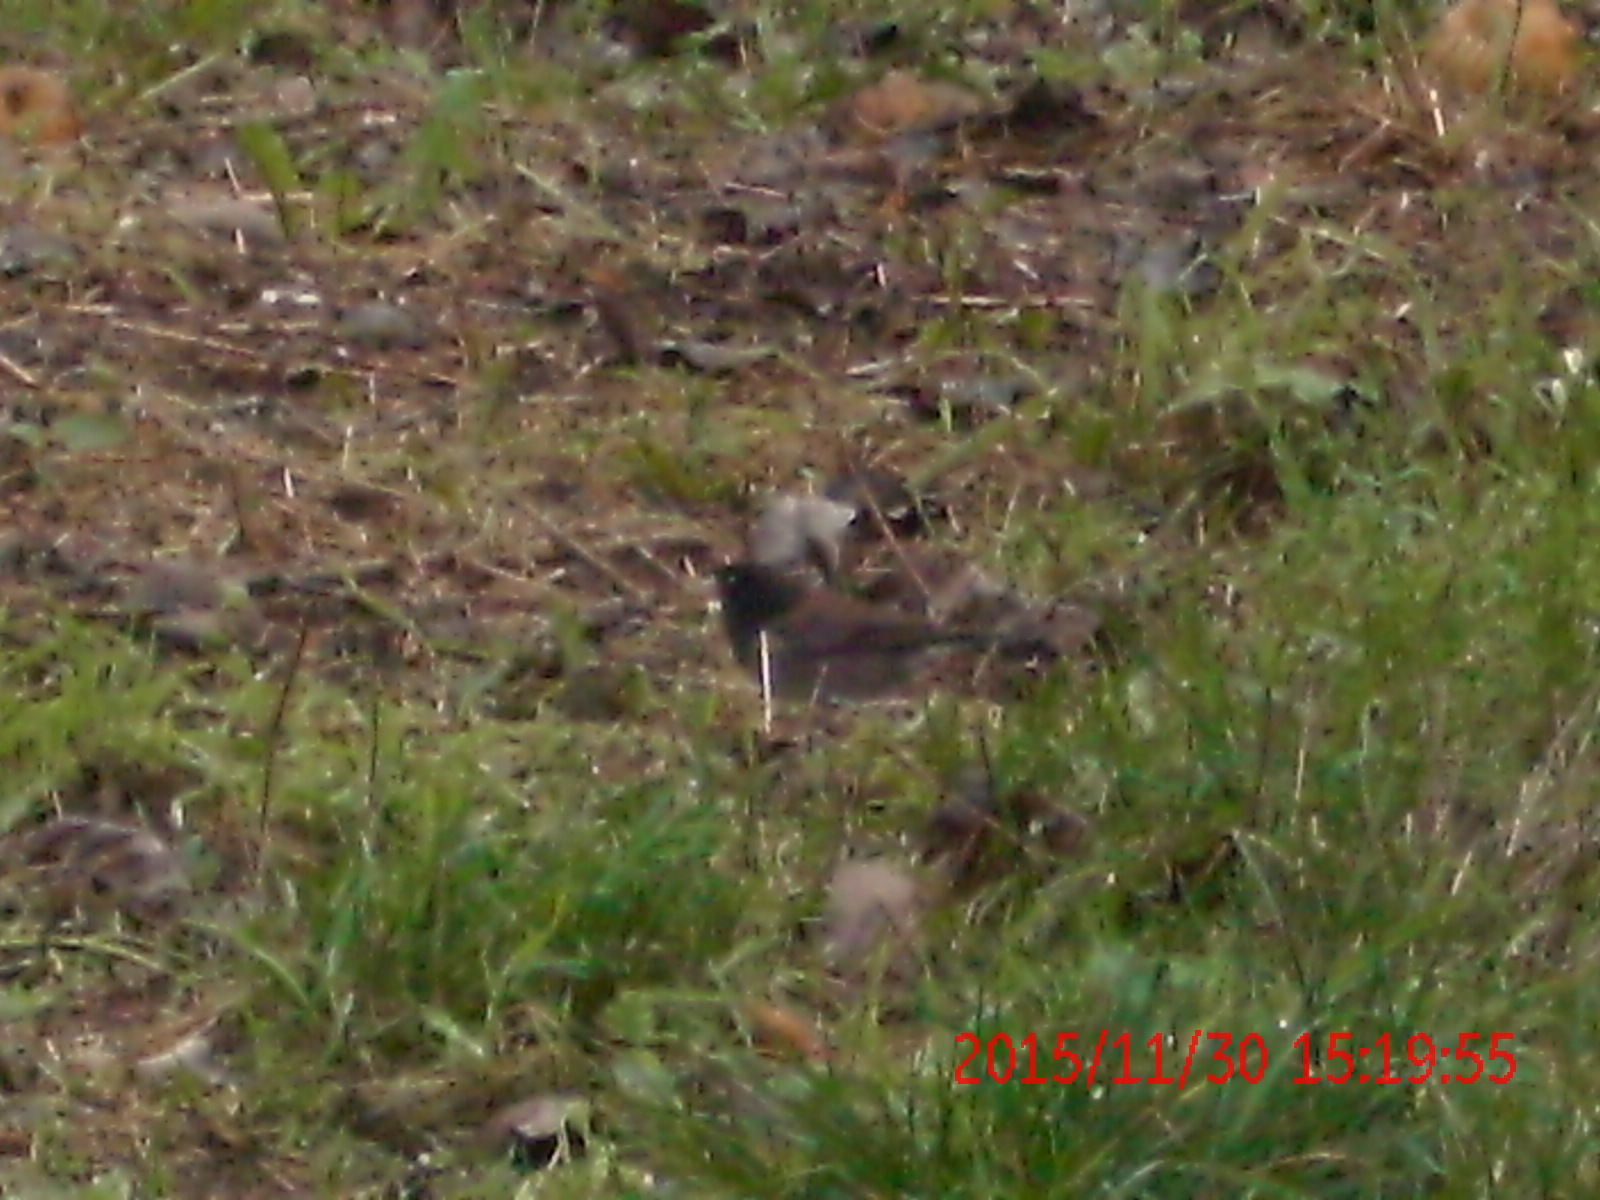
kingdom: Animalia
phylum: Chordata
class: Aves
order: Passeriformes
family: Passerellidae
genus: Junco
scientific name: Junco hyemalis
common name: Dark-eyed junco
